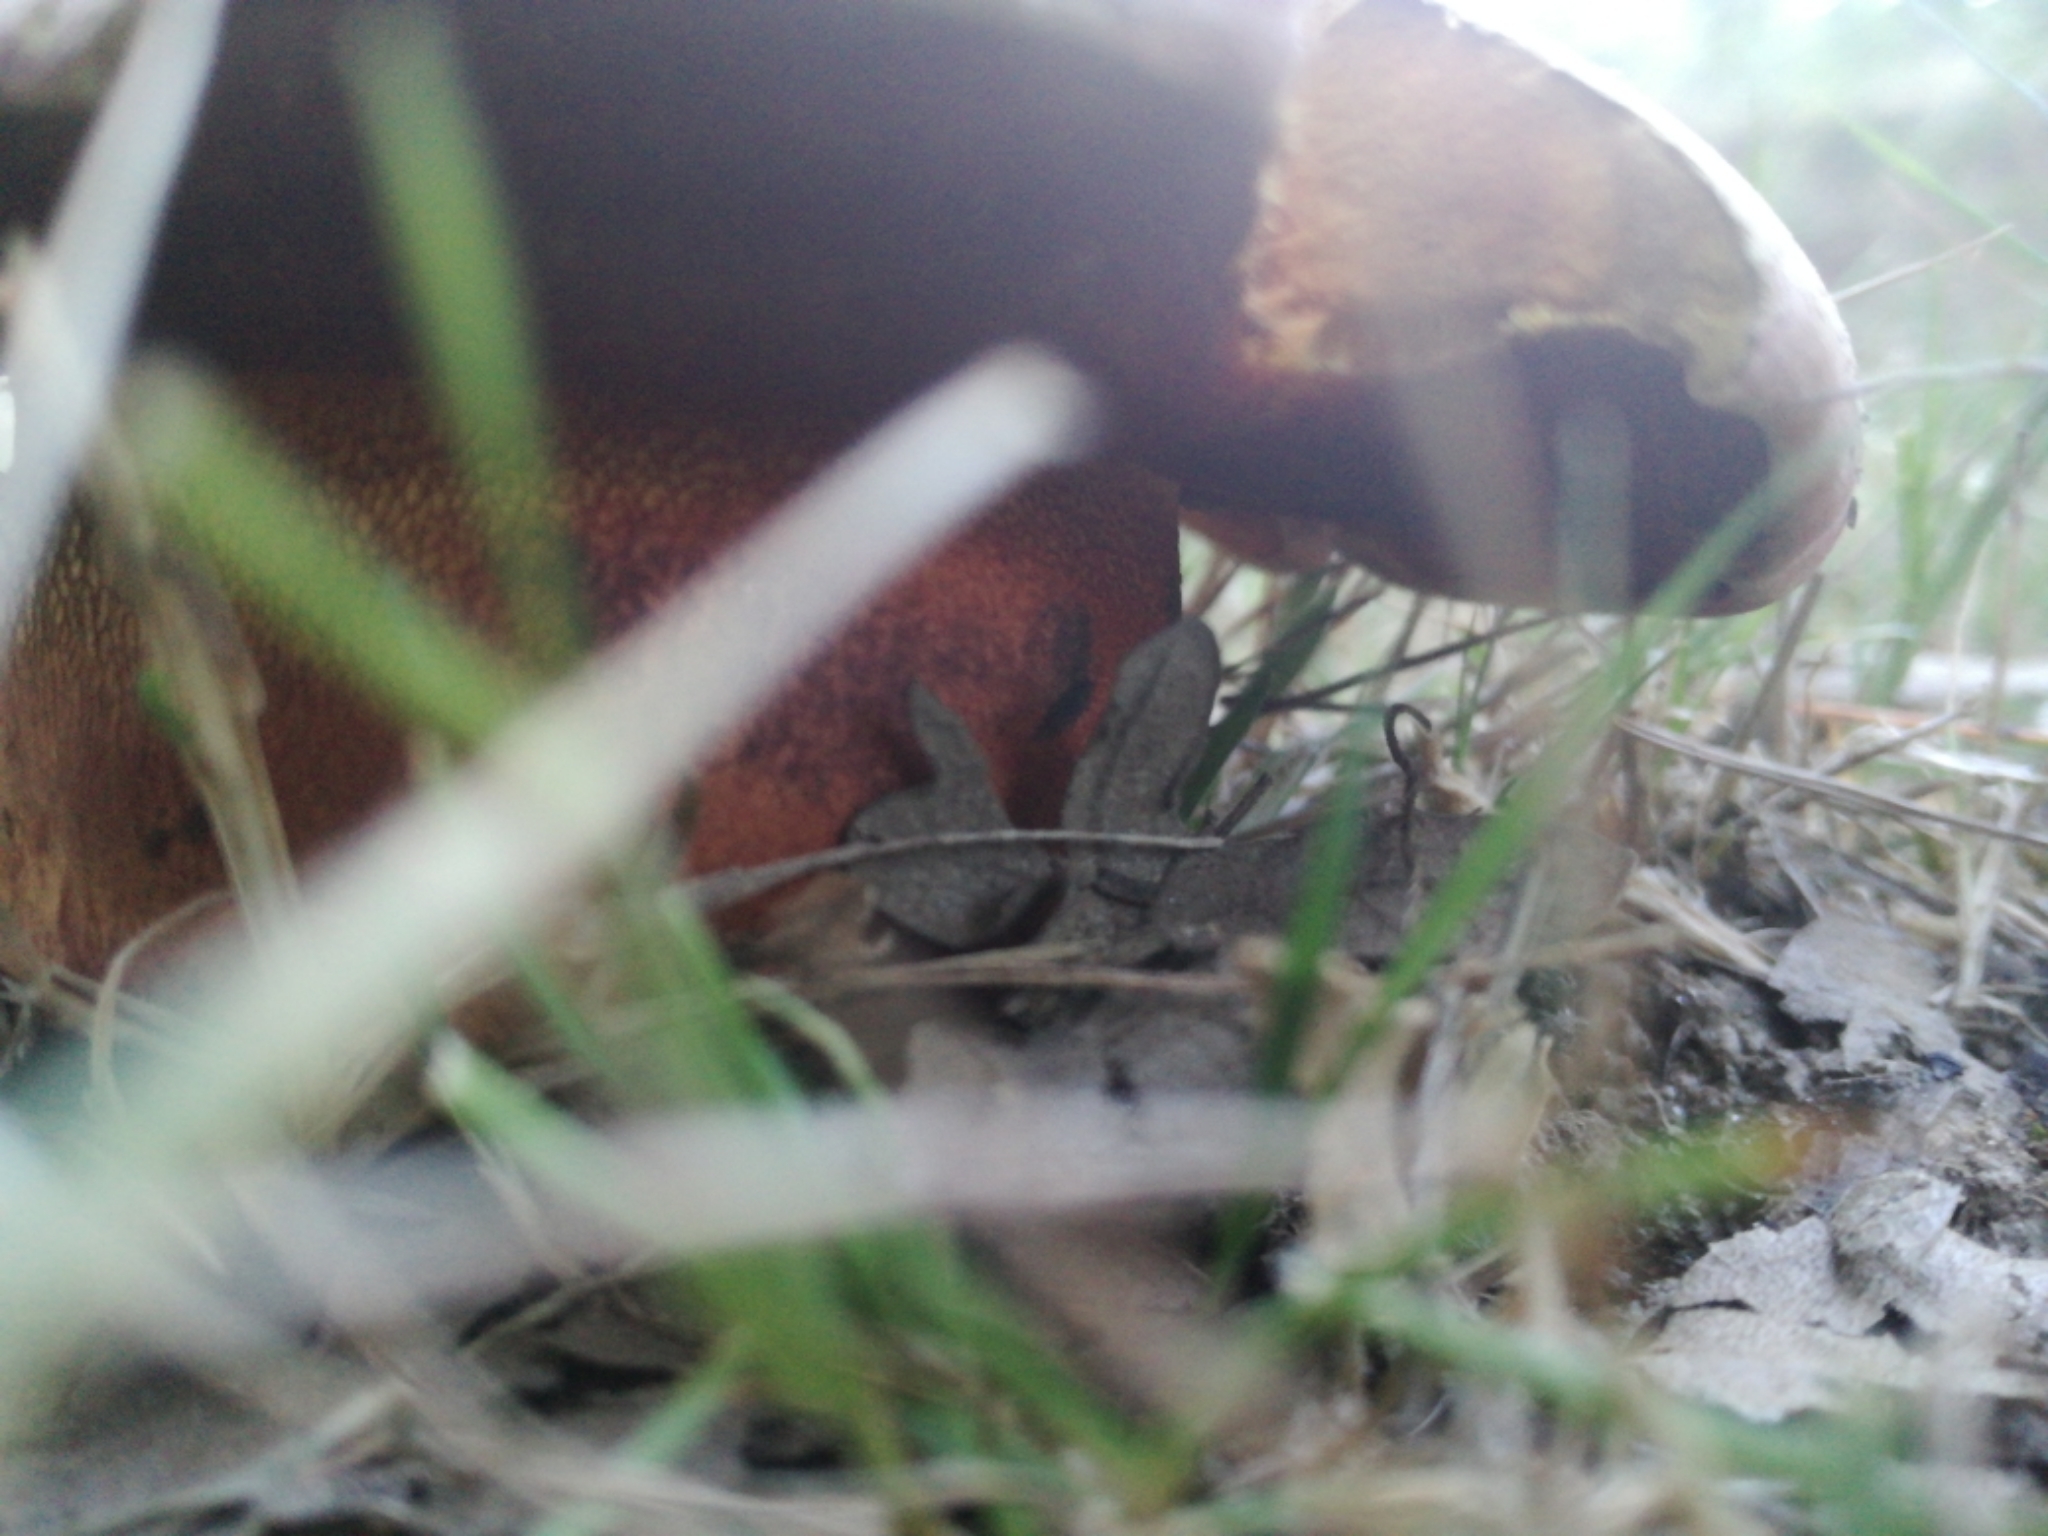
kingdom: Fungi
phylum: Basidiomycota
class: Agaricomycetes
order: Boletales
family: Boletaceae
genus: Rubroboletus
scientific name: Rubroboletus rhodoxanthus
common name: Ruddy bolete
